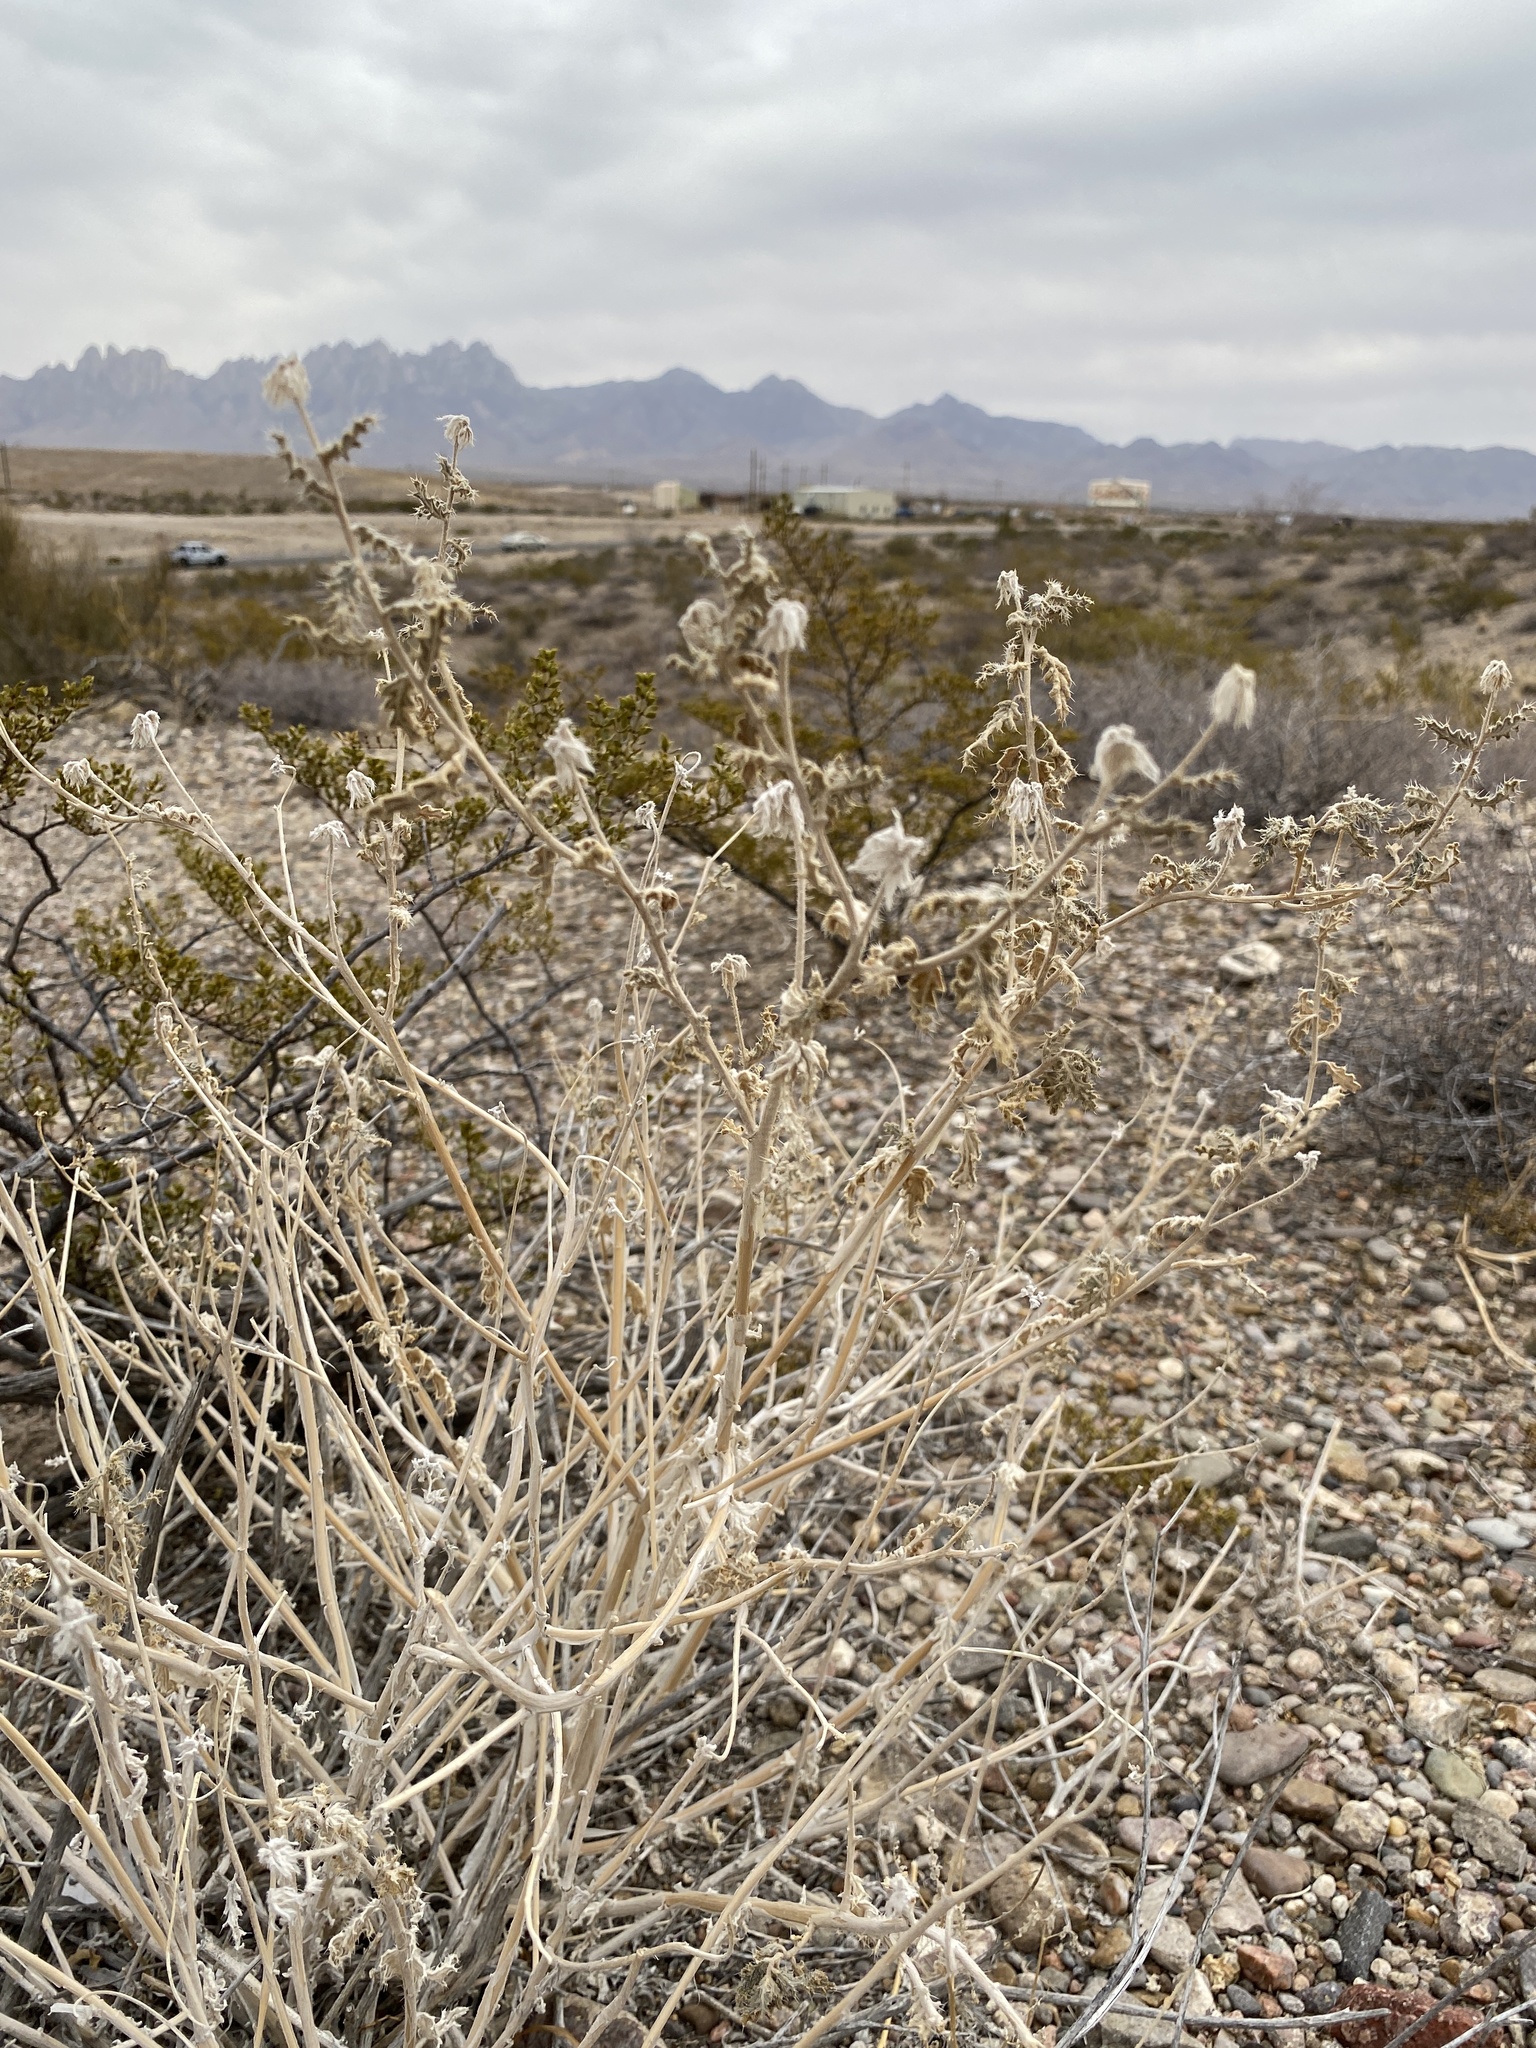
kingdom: Plantae
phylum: Tracheophyta
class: Magnoliopsida
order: Cornales
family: Loasaceae
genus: Cevallia
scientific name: Cevallia sinuata
